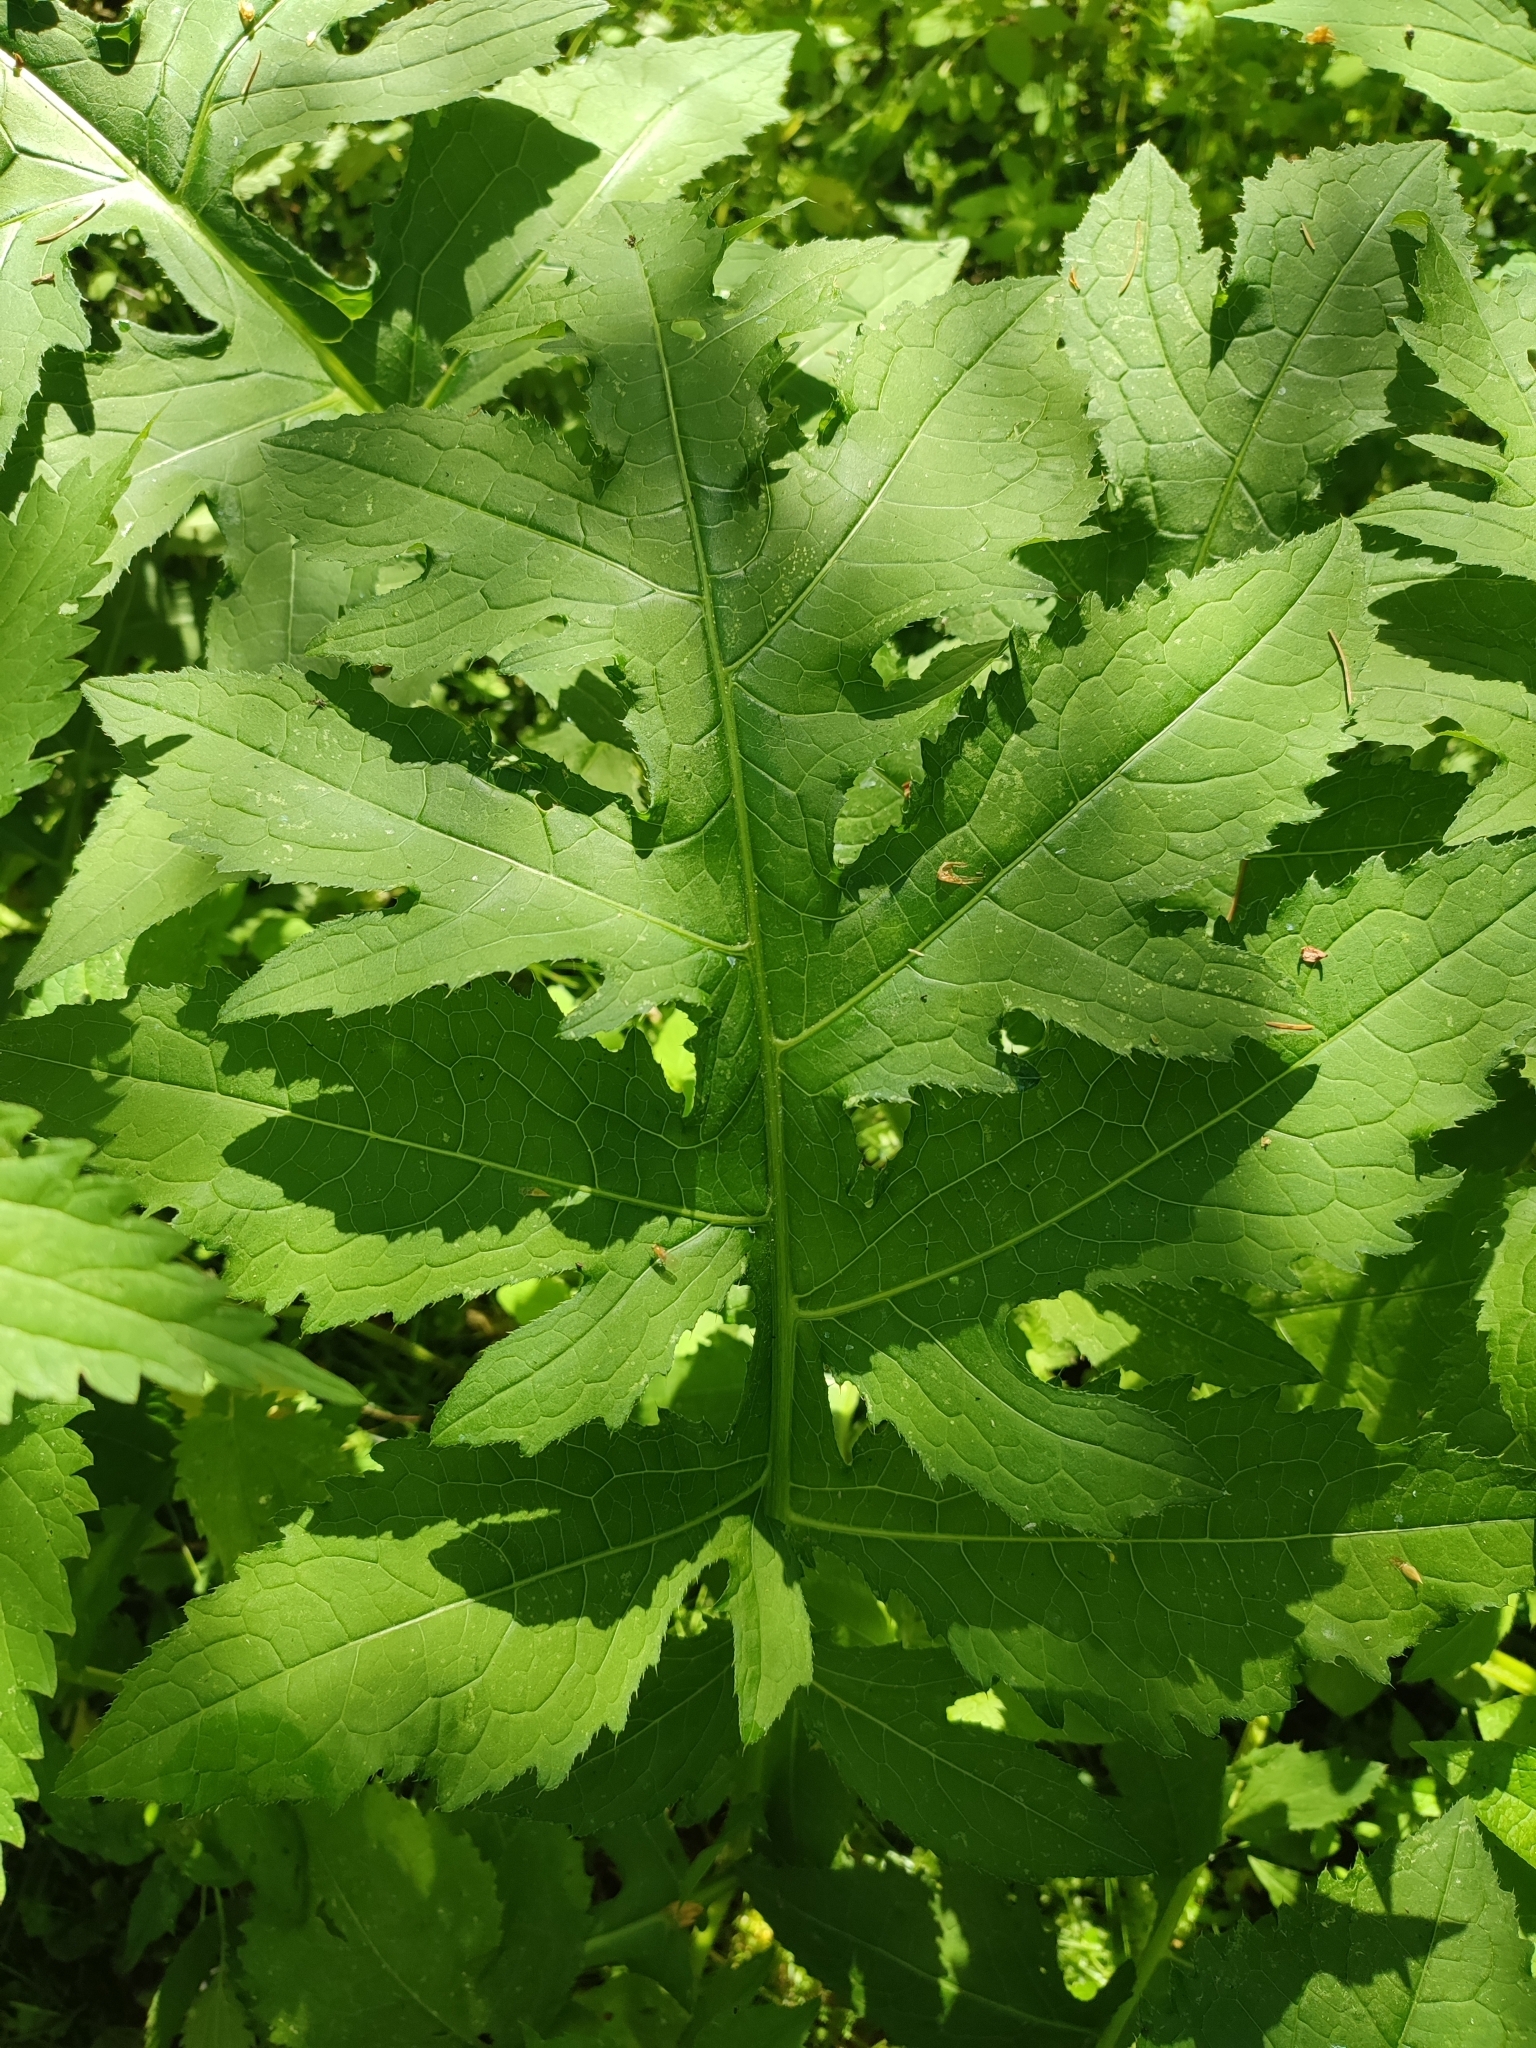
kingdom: Plantae
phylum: Tracheophyta
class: Magnoliopsida
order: Asterales
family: Asteraceae
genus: Cirsium
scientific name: Cirsium oleraceum
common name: Cabbage thistle
